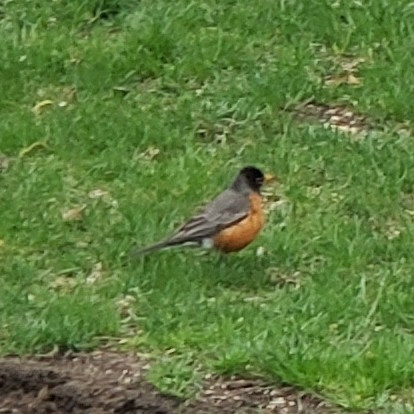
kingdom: Animalia
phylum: Chordata
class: Aves
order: Passeriformes
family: Turdidae
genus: Turdus
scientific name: Turdus migratorius
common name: American robin
